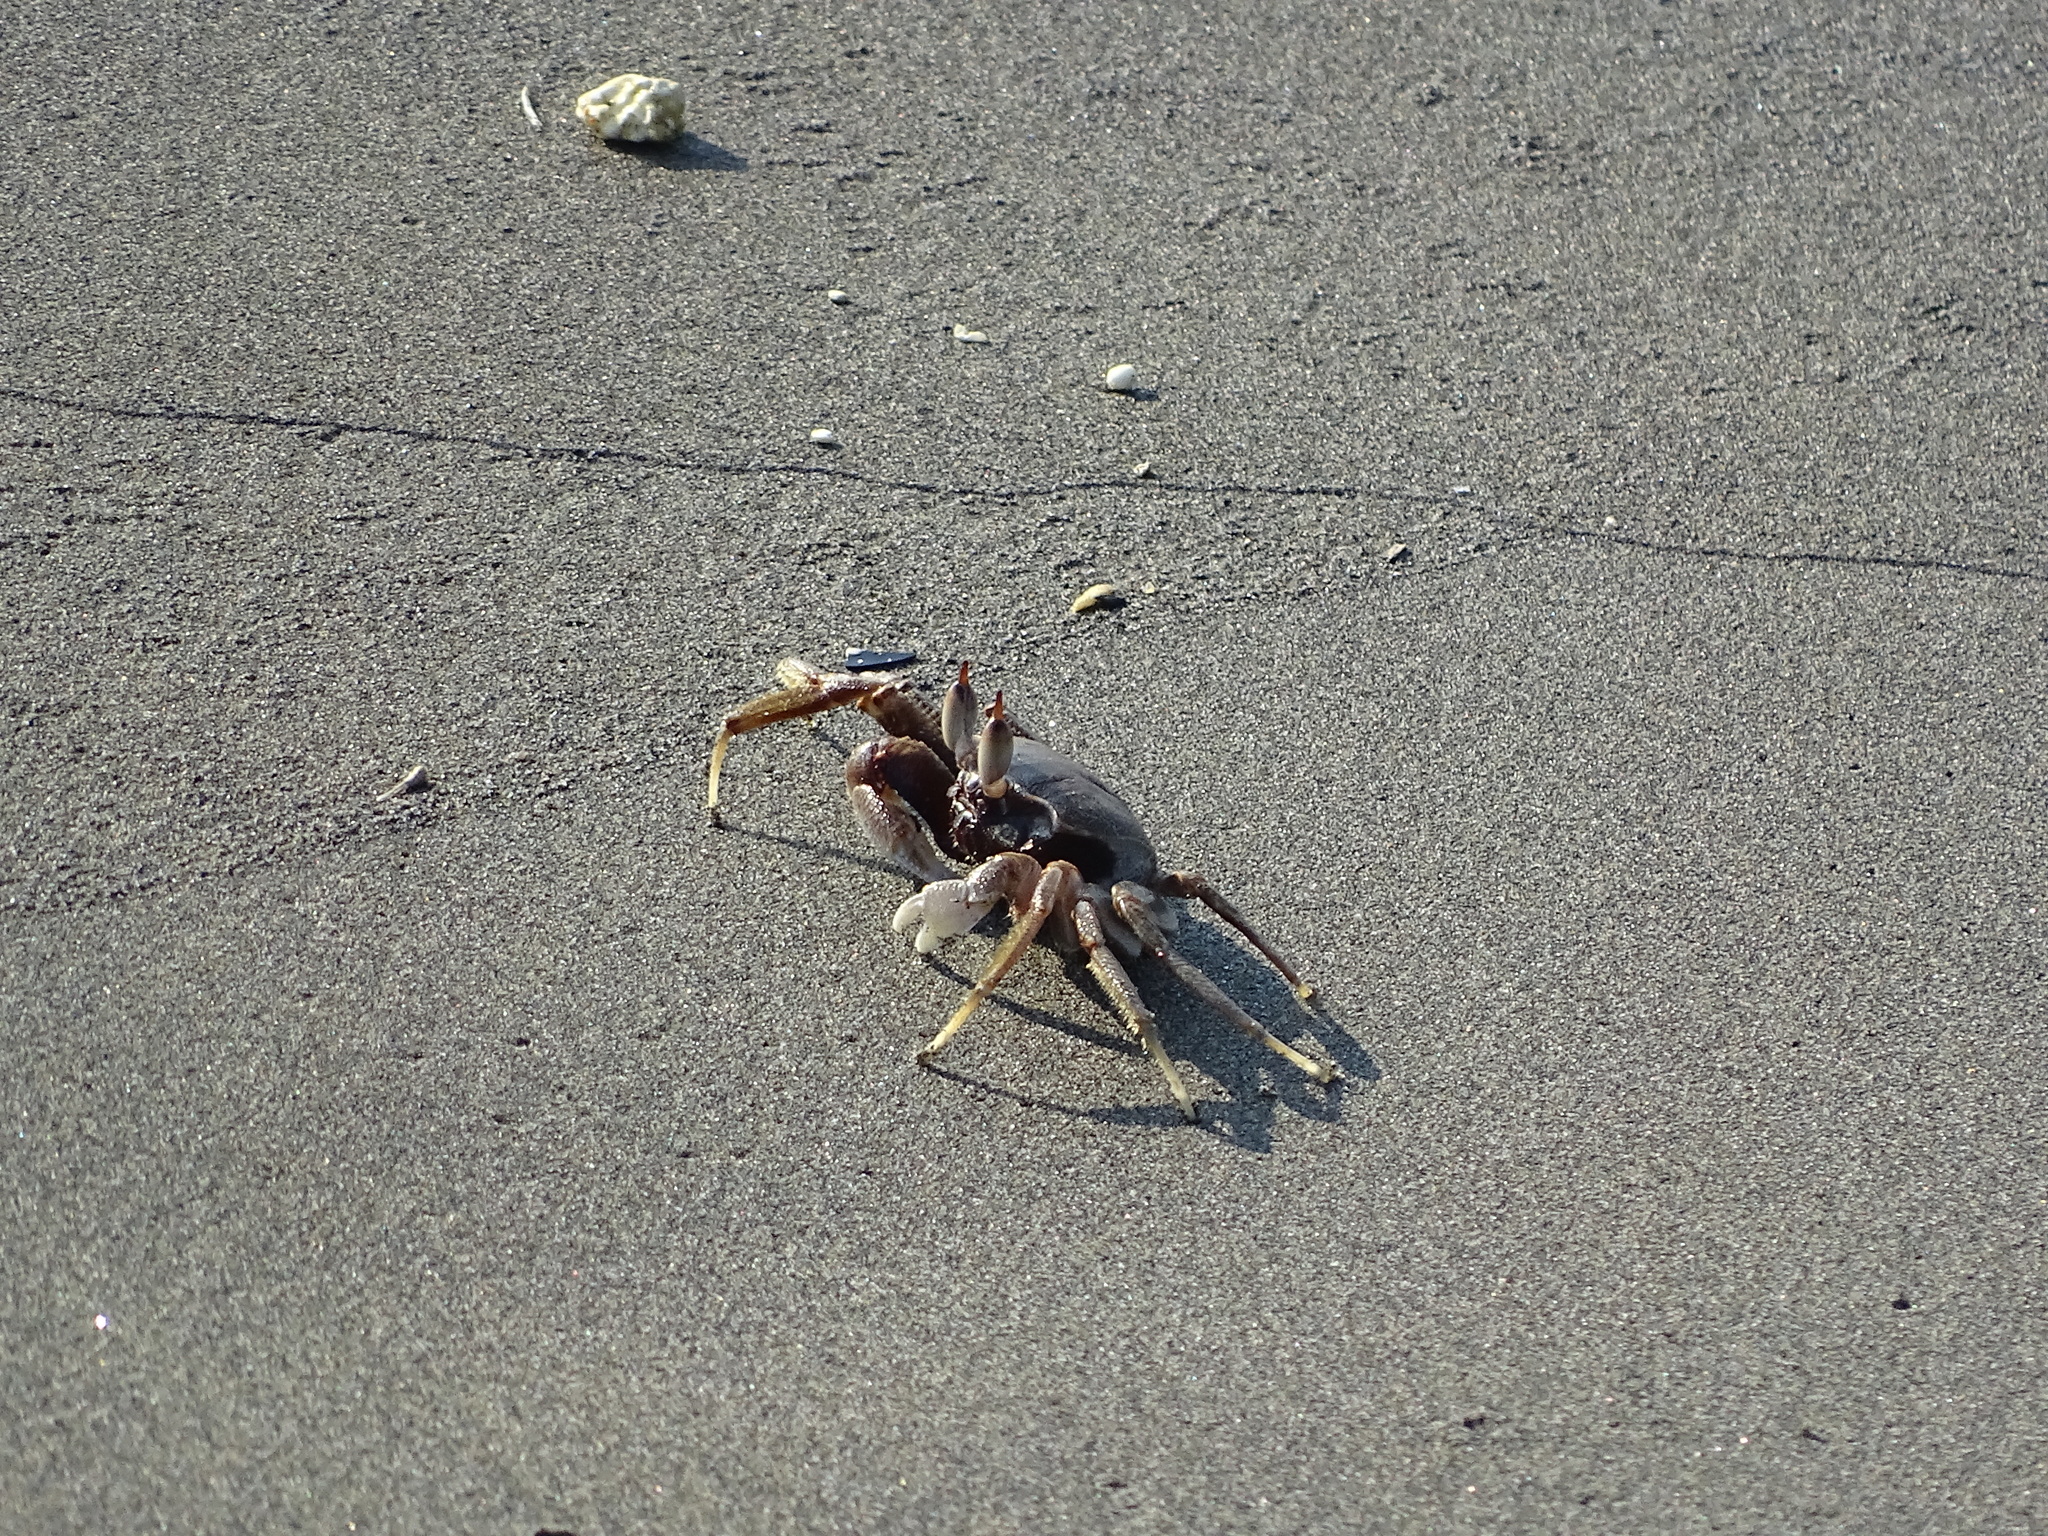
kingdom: Animalia
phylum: Arthropoda
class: Malacostraca
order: Decapoda
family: Ocypodidae
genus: Ocypode
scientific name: Ocypode ceratophthalmus
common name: Indo-pacific ghost crab
